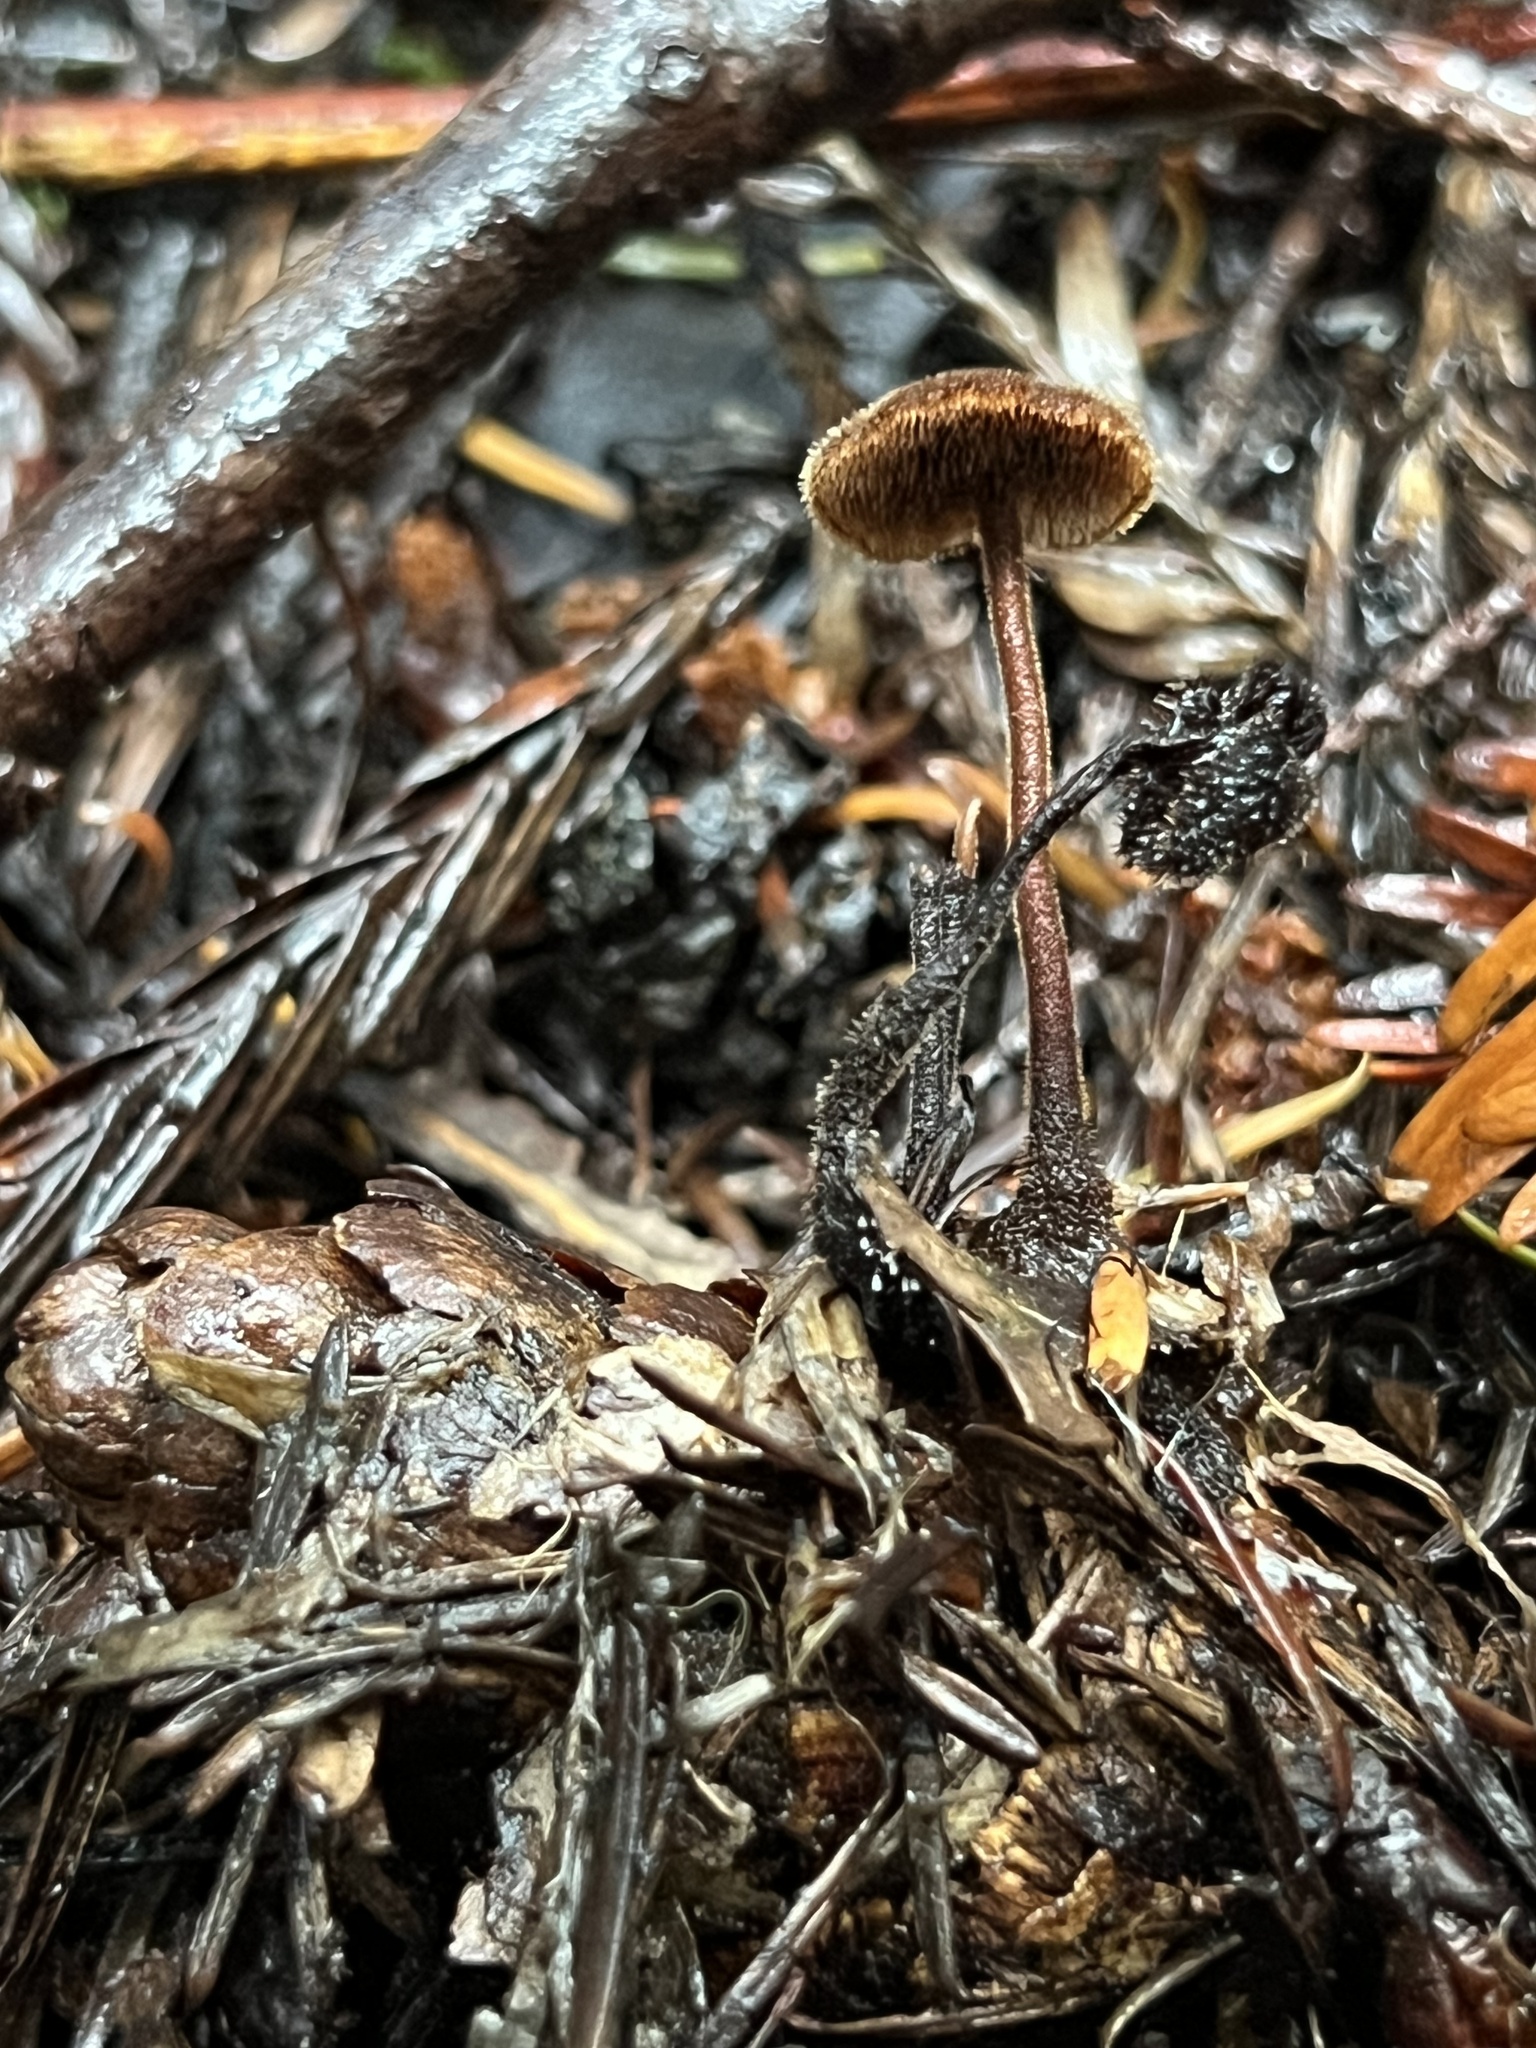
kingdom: Fungi
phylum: Basidiomycota
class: Agaricomycetes
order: Russulales
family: Auriscalpiaceae
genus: Auriscalpium
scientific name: Auriscalpium vulgare
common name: Earpick fungus
